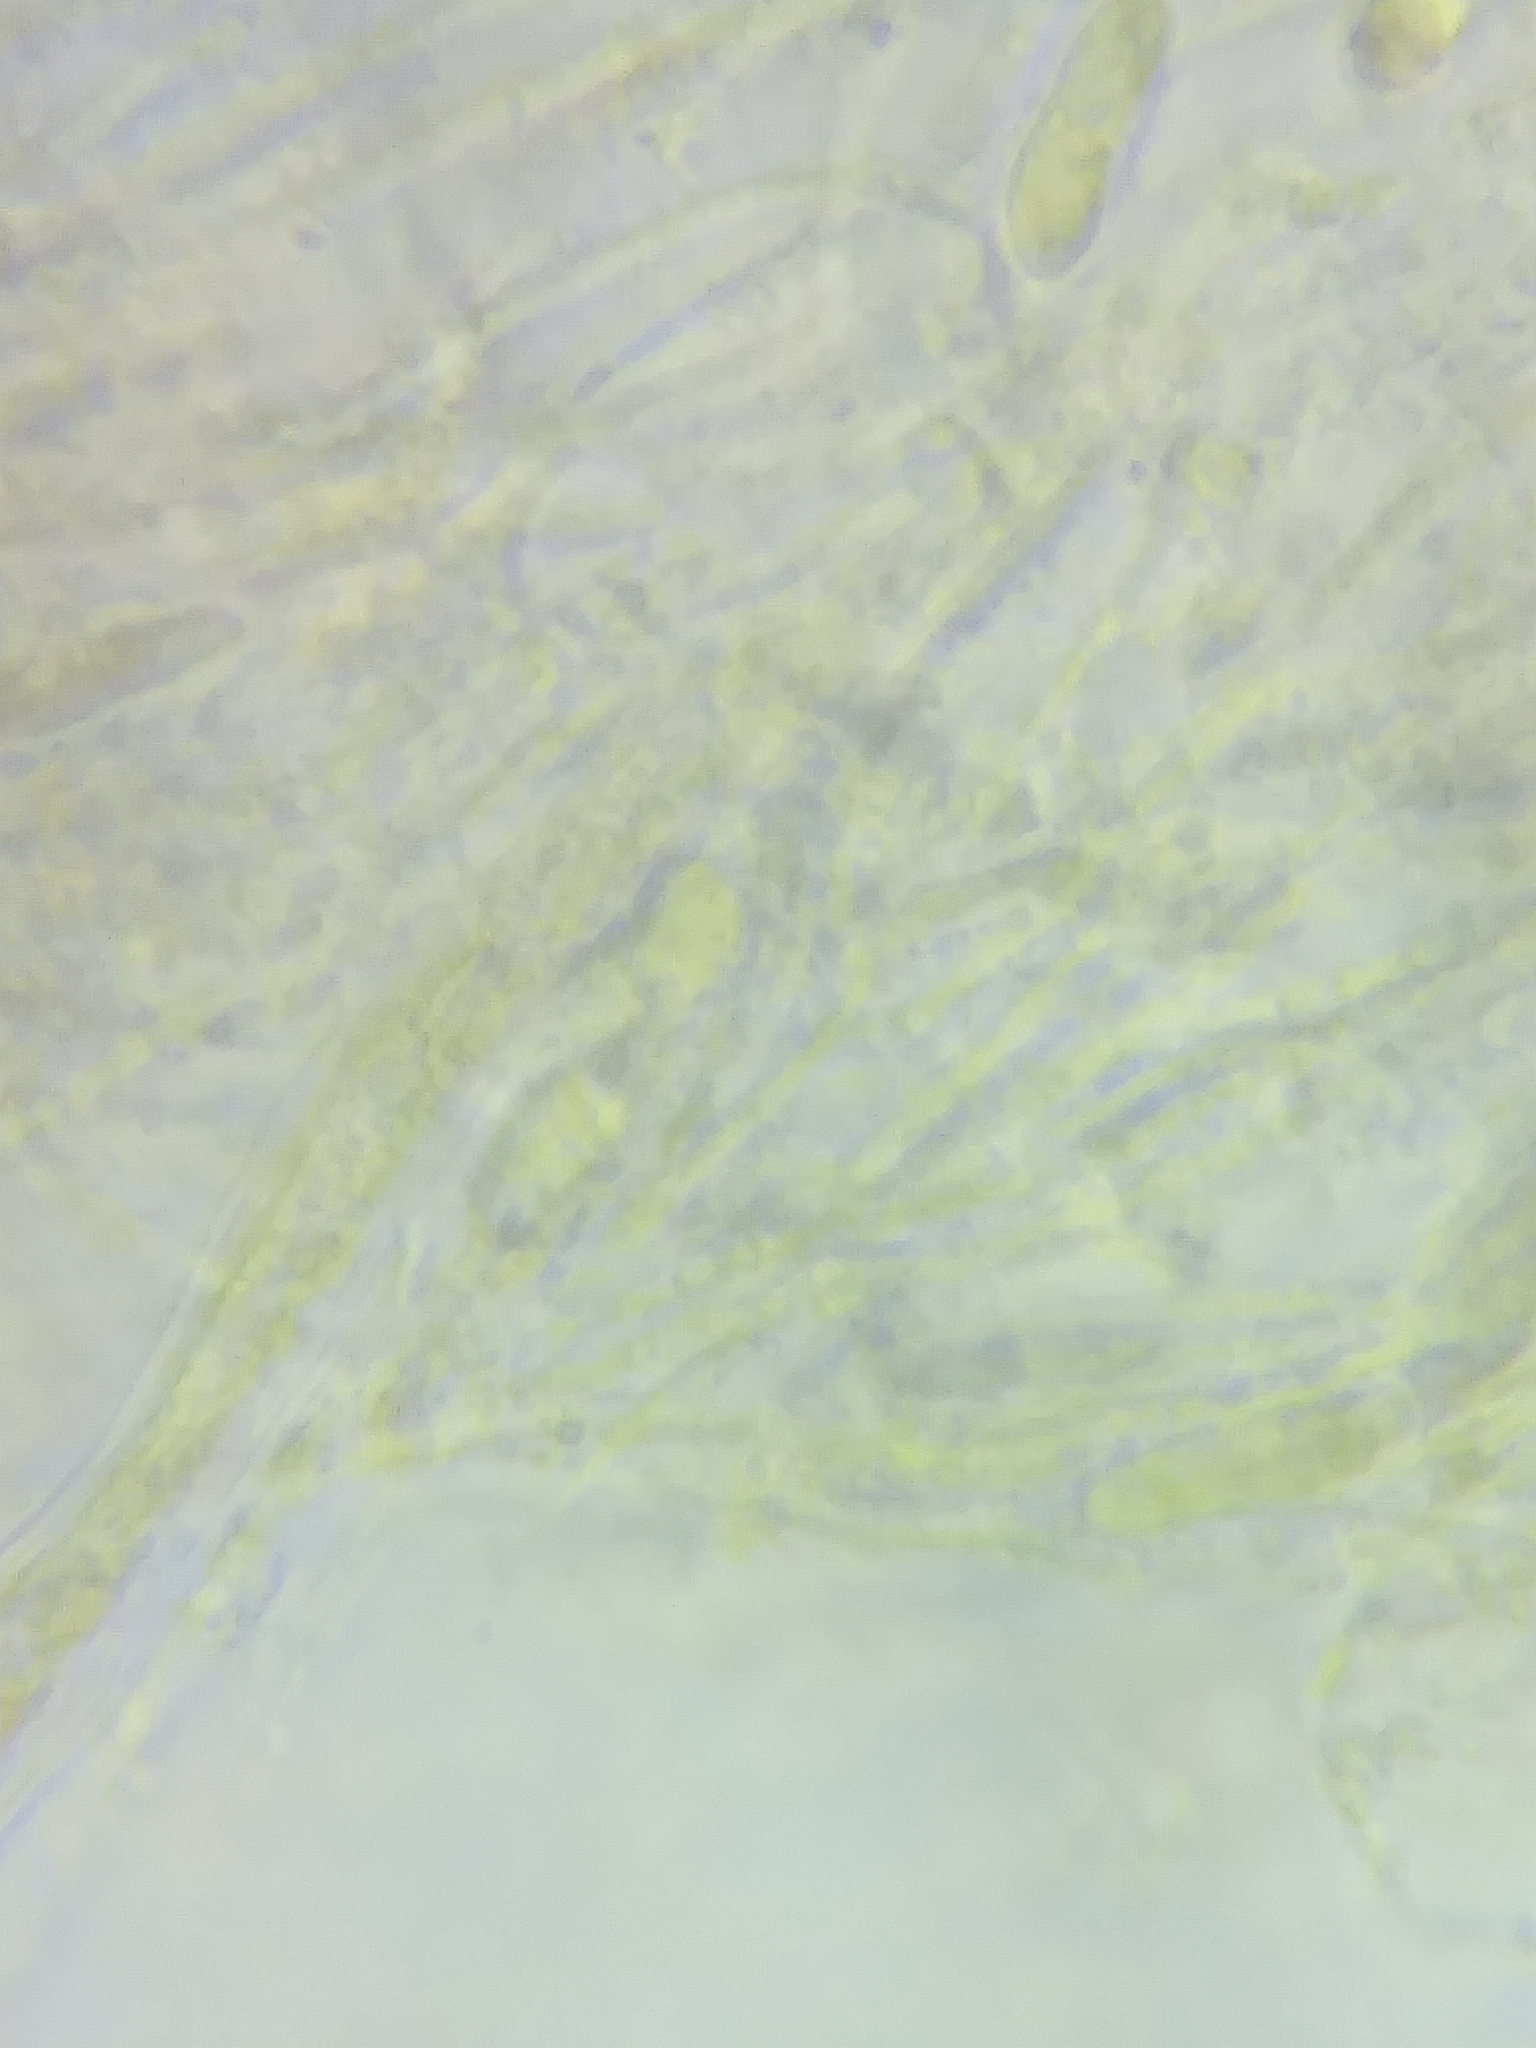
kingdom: Fungi
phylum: Basidiomycota
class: Agaricomycetes
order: Agaricales
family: Typhulaceae
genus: Typhula
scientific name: Typhula contorta
